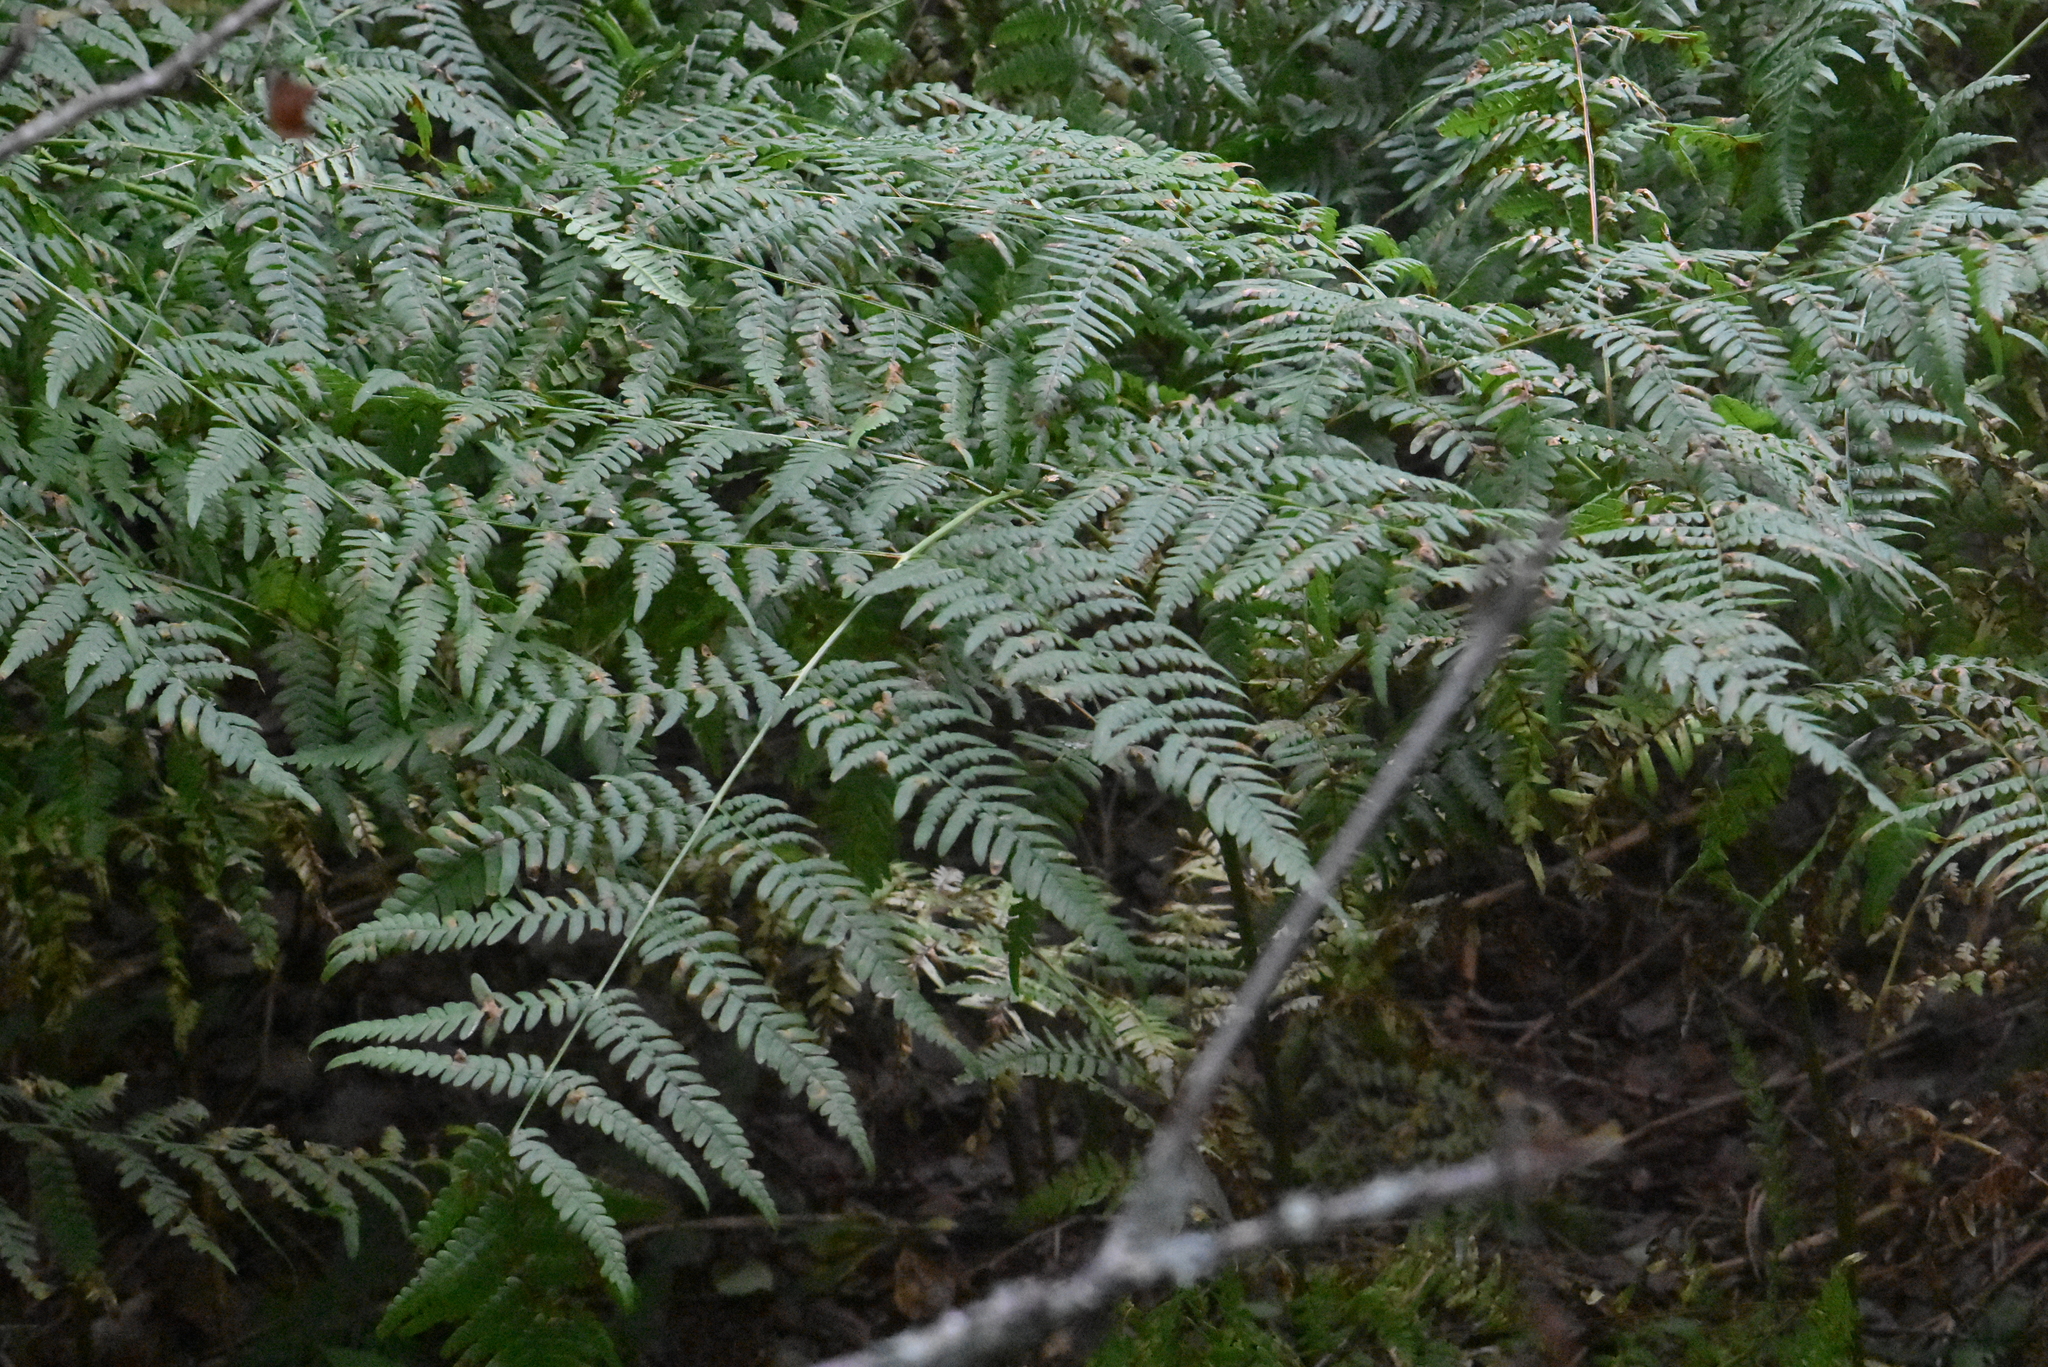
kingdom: Plantae
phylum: Tracheophyta
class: Polypodiopsida
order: Polypodiales
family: Dennstaedtiaceae
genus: Pteridium
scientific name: Pteridium aquilinum
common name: Bracken
